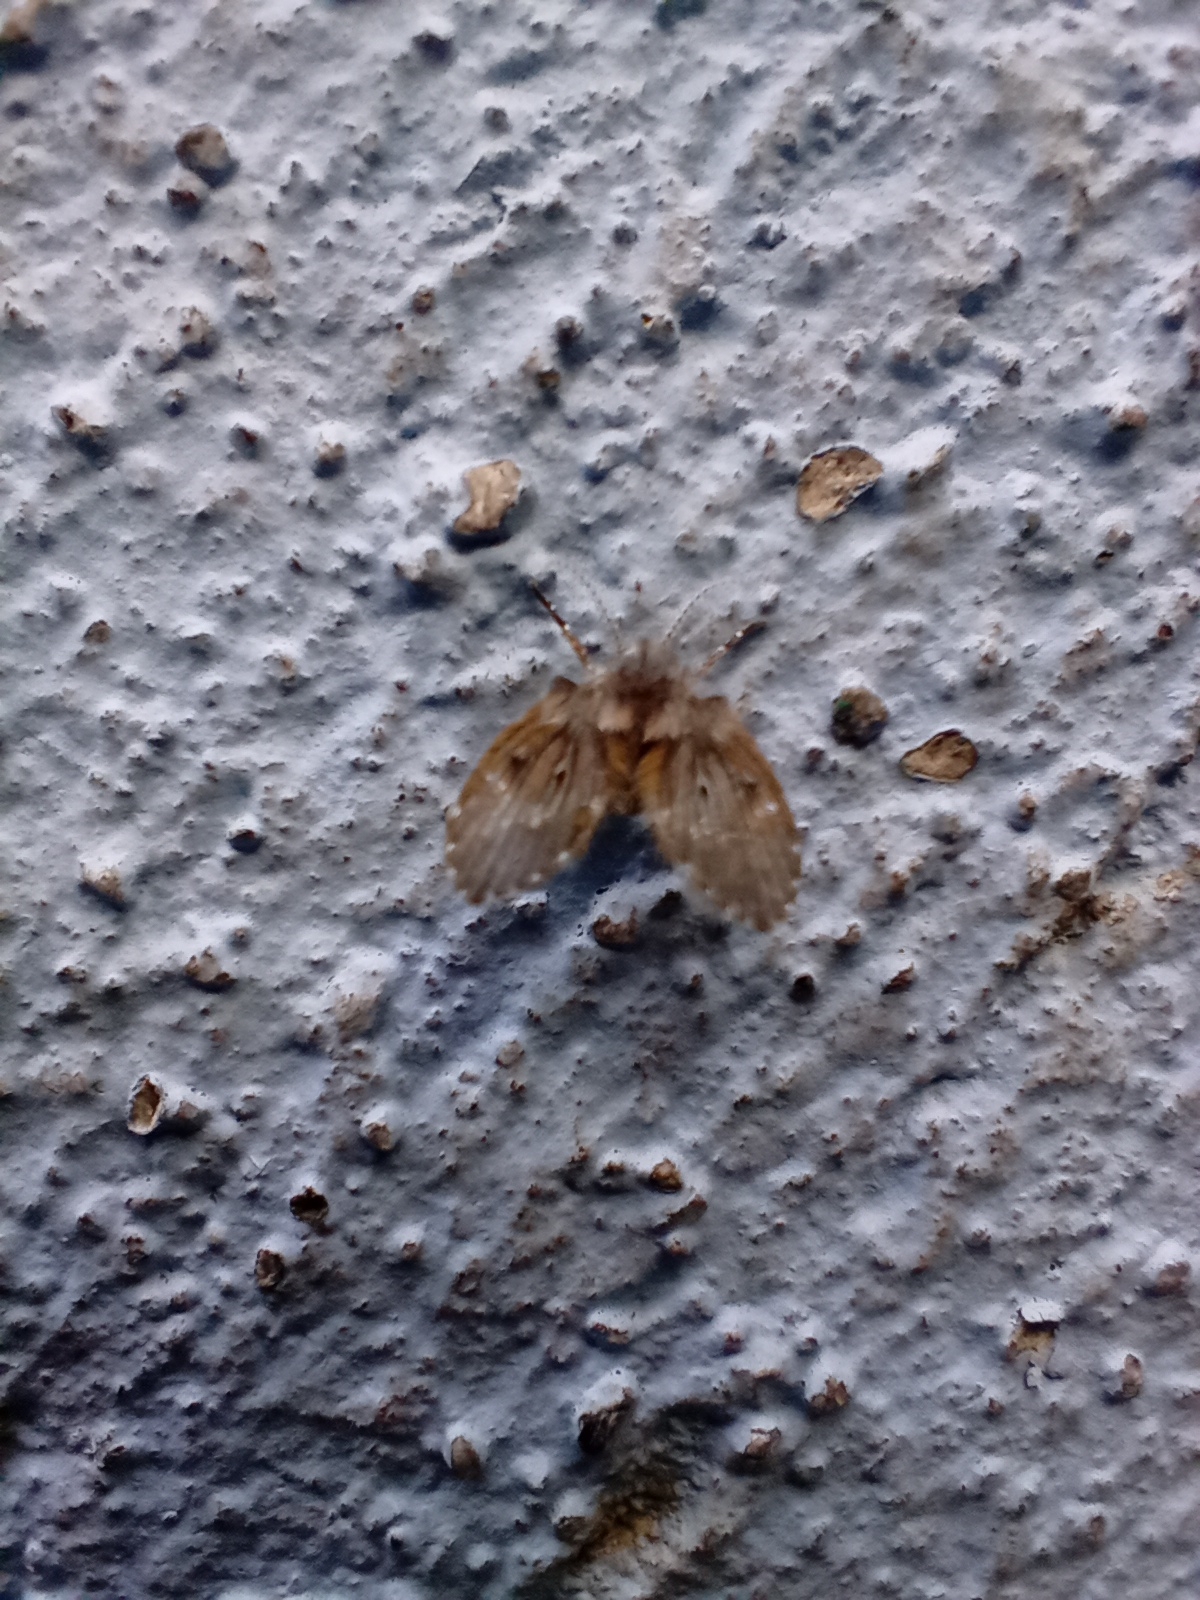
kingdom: Animalia
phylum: Arthropoda
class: Insecta
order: Diptera
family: Psychodidae
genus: Clogmia
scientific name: Clogmia albipunctatus
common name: White-spotted moth fly
